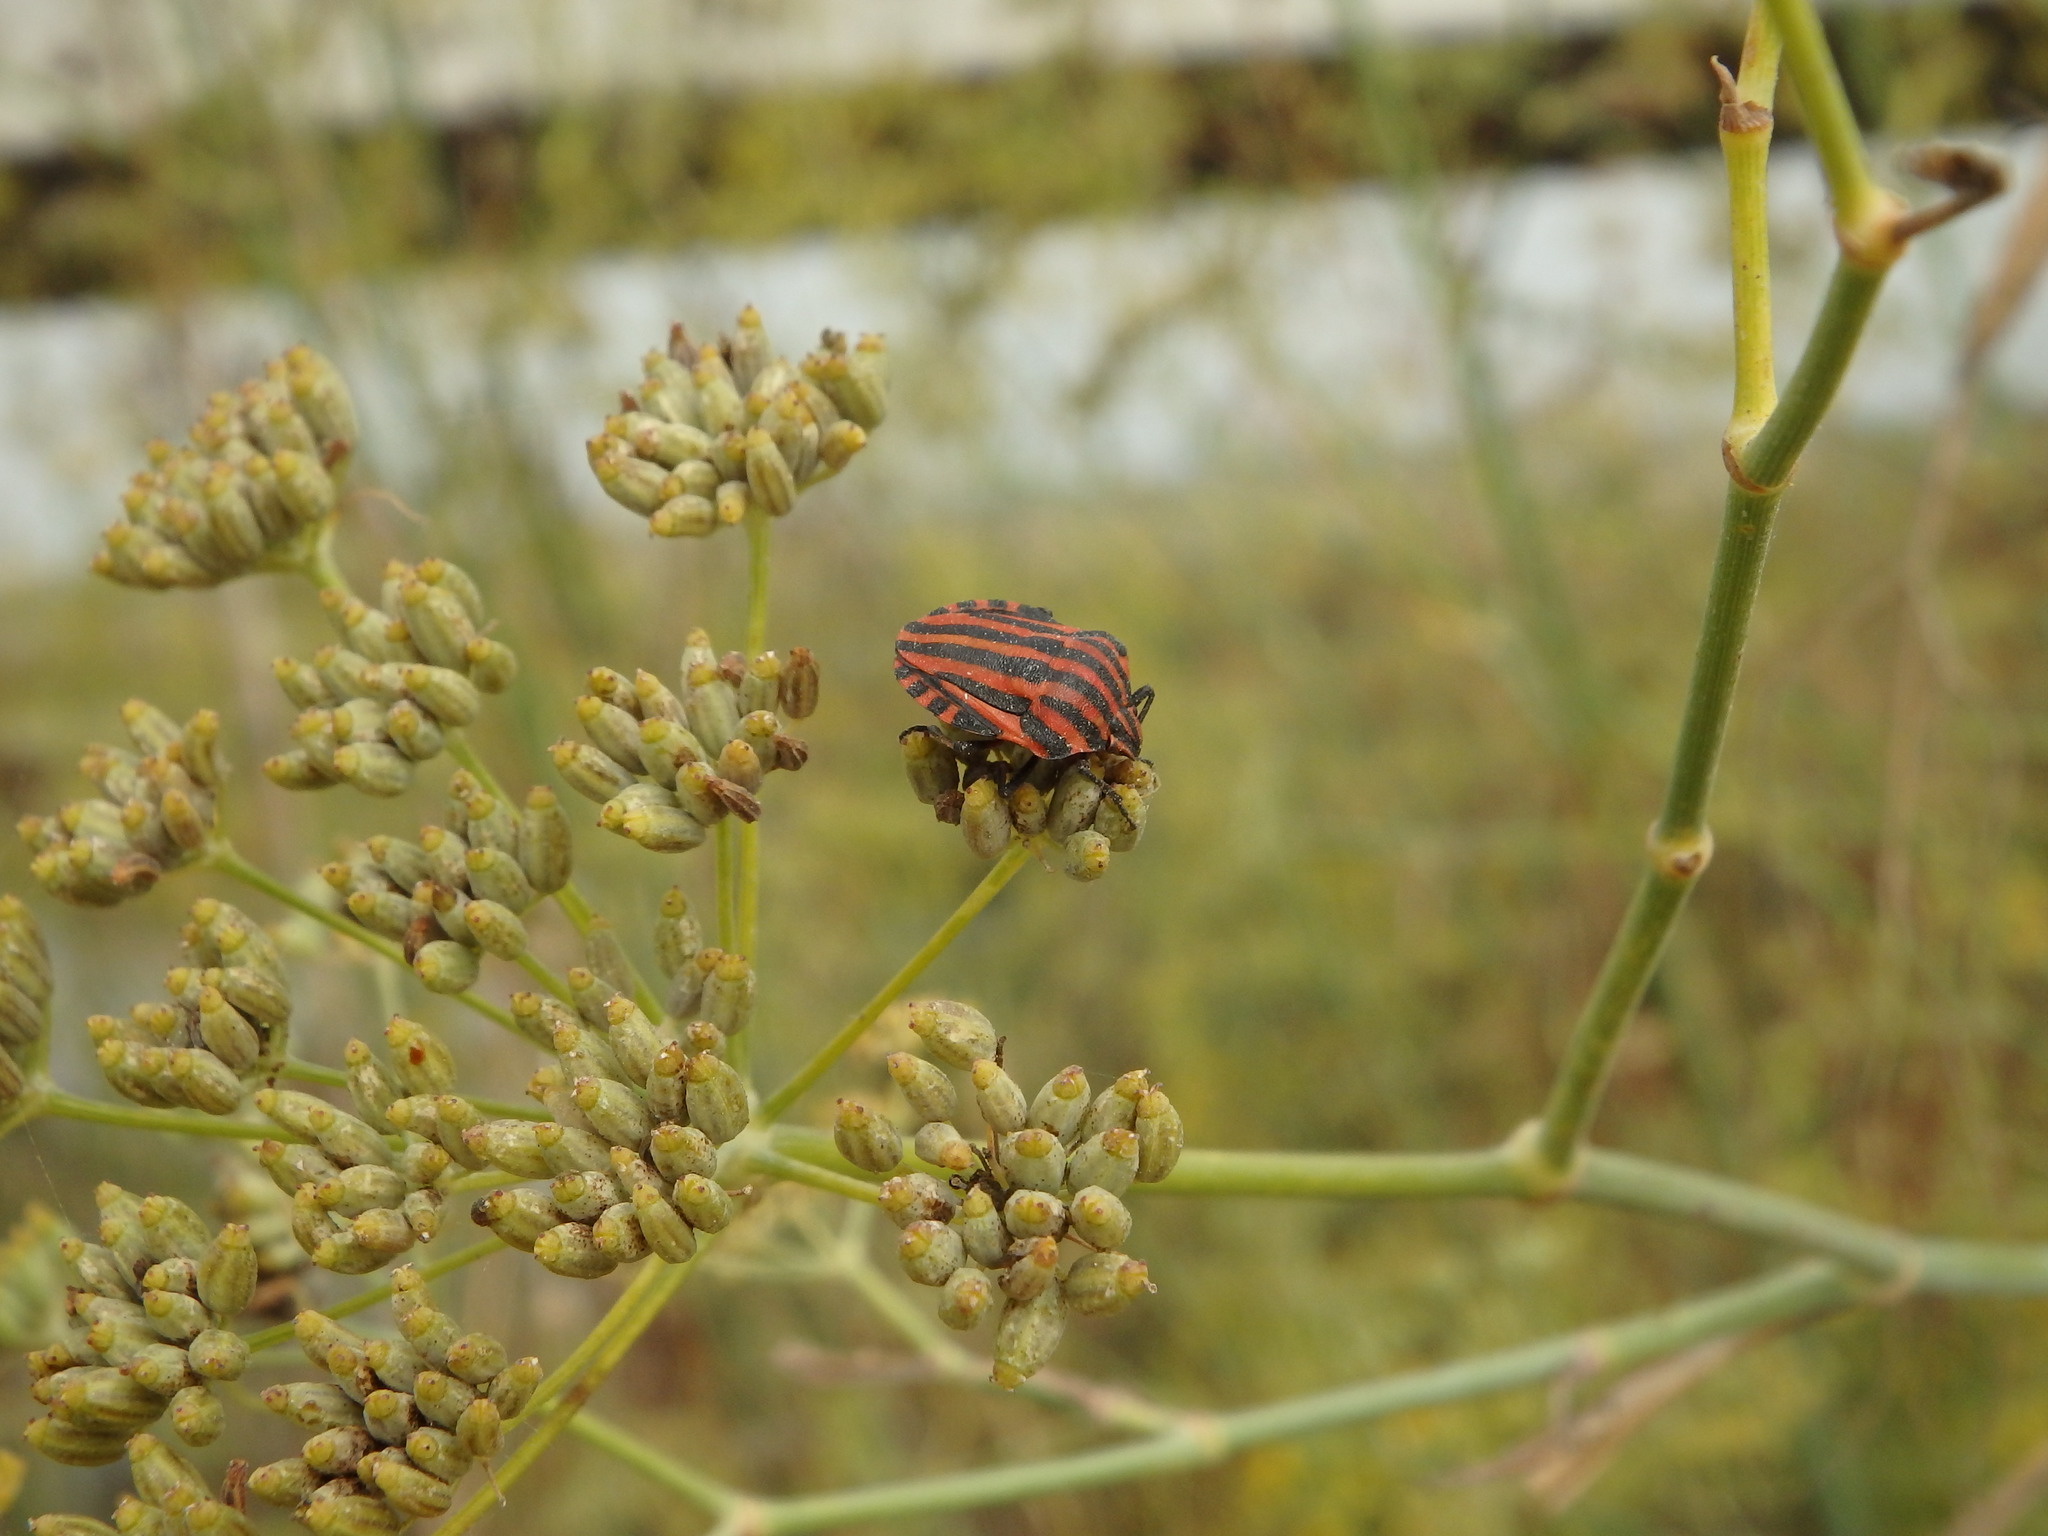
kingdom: Animalia
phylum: Arthropoda
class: Insecta
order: Hemiptera
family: Pentatomidae
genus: Graphosoma
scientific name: Graphosoma italicum
